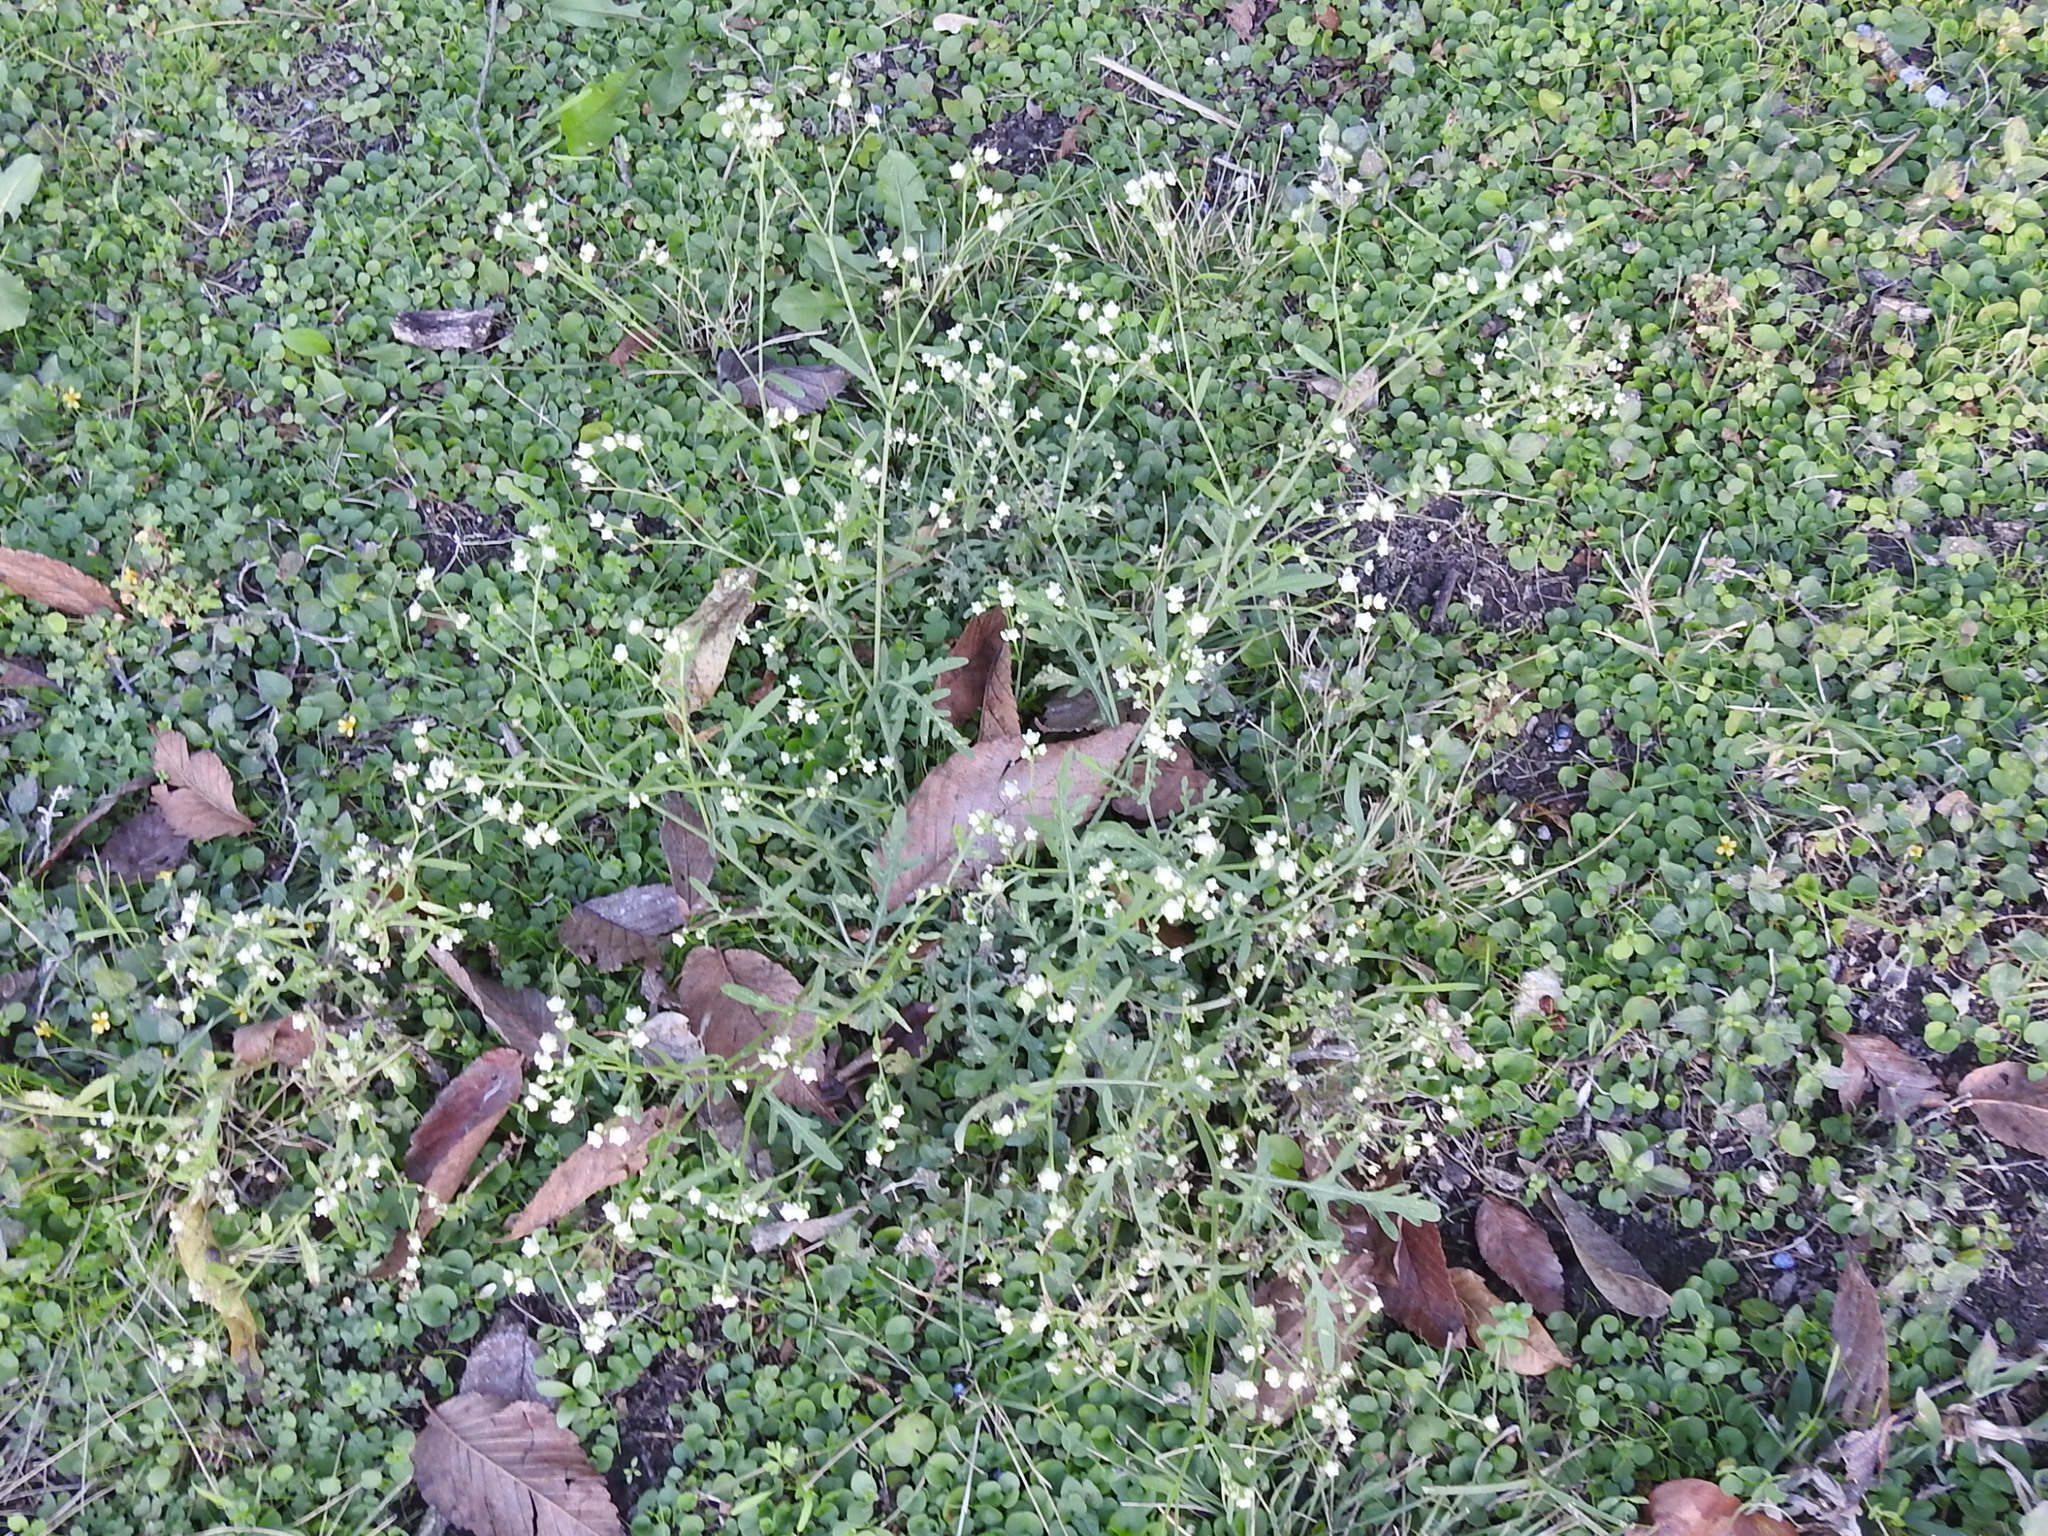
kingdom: Plantae
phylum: Tracheophyta
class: Magnoliopsida
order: Asterales
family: Asteraceae
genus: Parthenium
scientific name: Parthenium hysterophorus
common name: Santa maria feverfew
